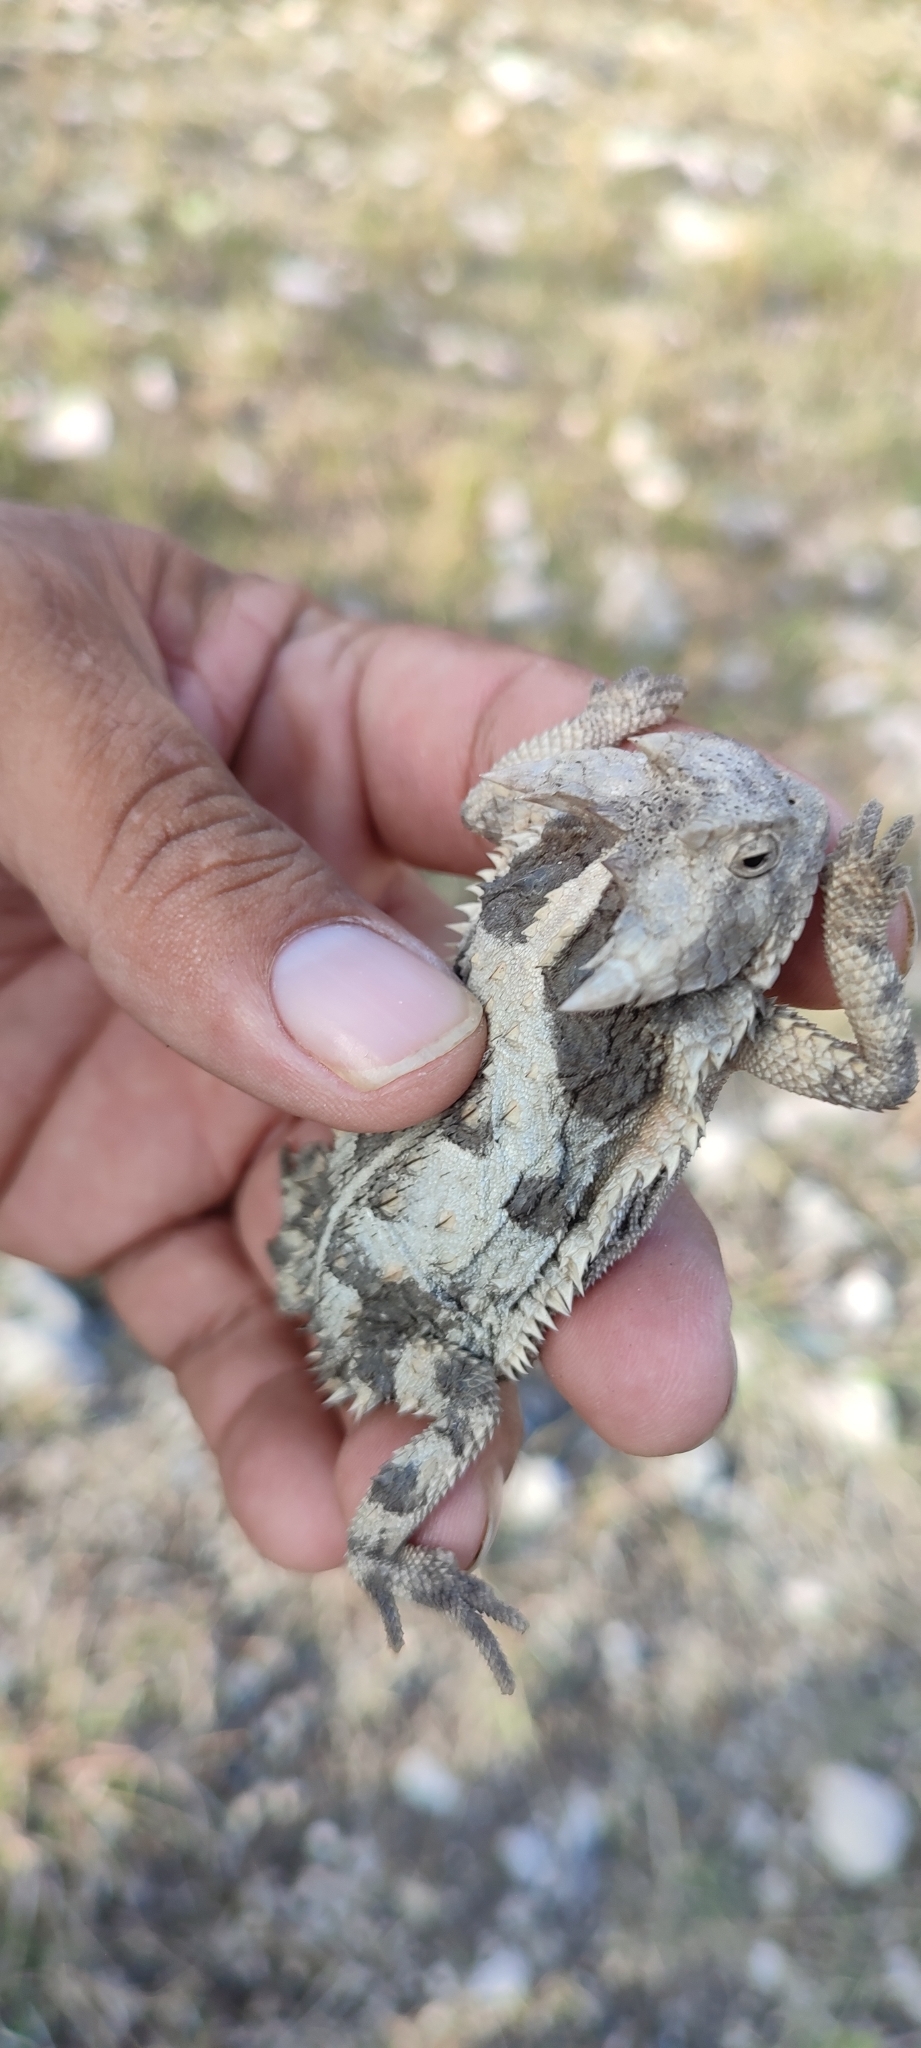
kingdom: Animalia
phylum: Chordata
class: Squamata
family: Phrynosomatidae
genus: Phrynosoma
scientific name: Phrynosoma taurus
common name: Mexican horned lizard
